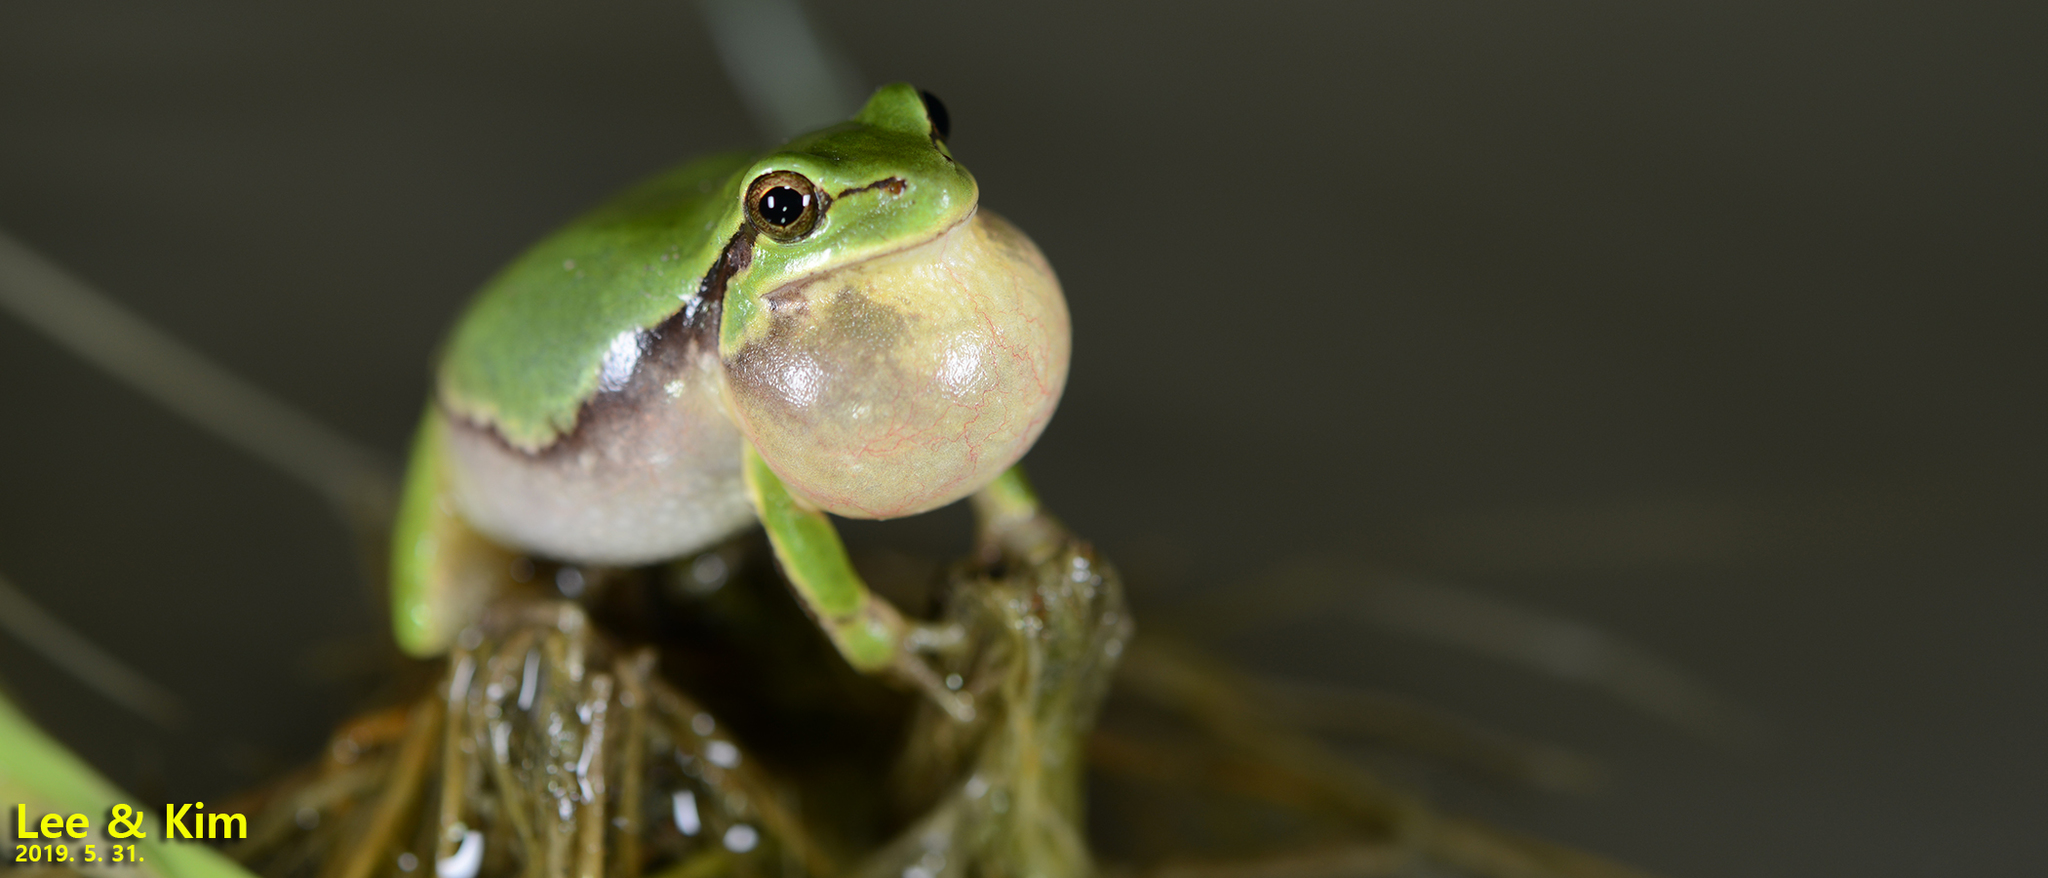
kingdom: Animalia
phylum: Chordata
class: Amphibia
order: Anura
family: Hylidae
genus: Dryophytes
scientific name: Dryophytes immaculatus
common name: North china treefrog
